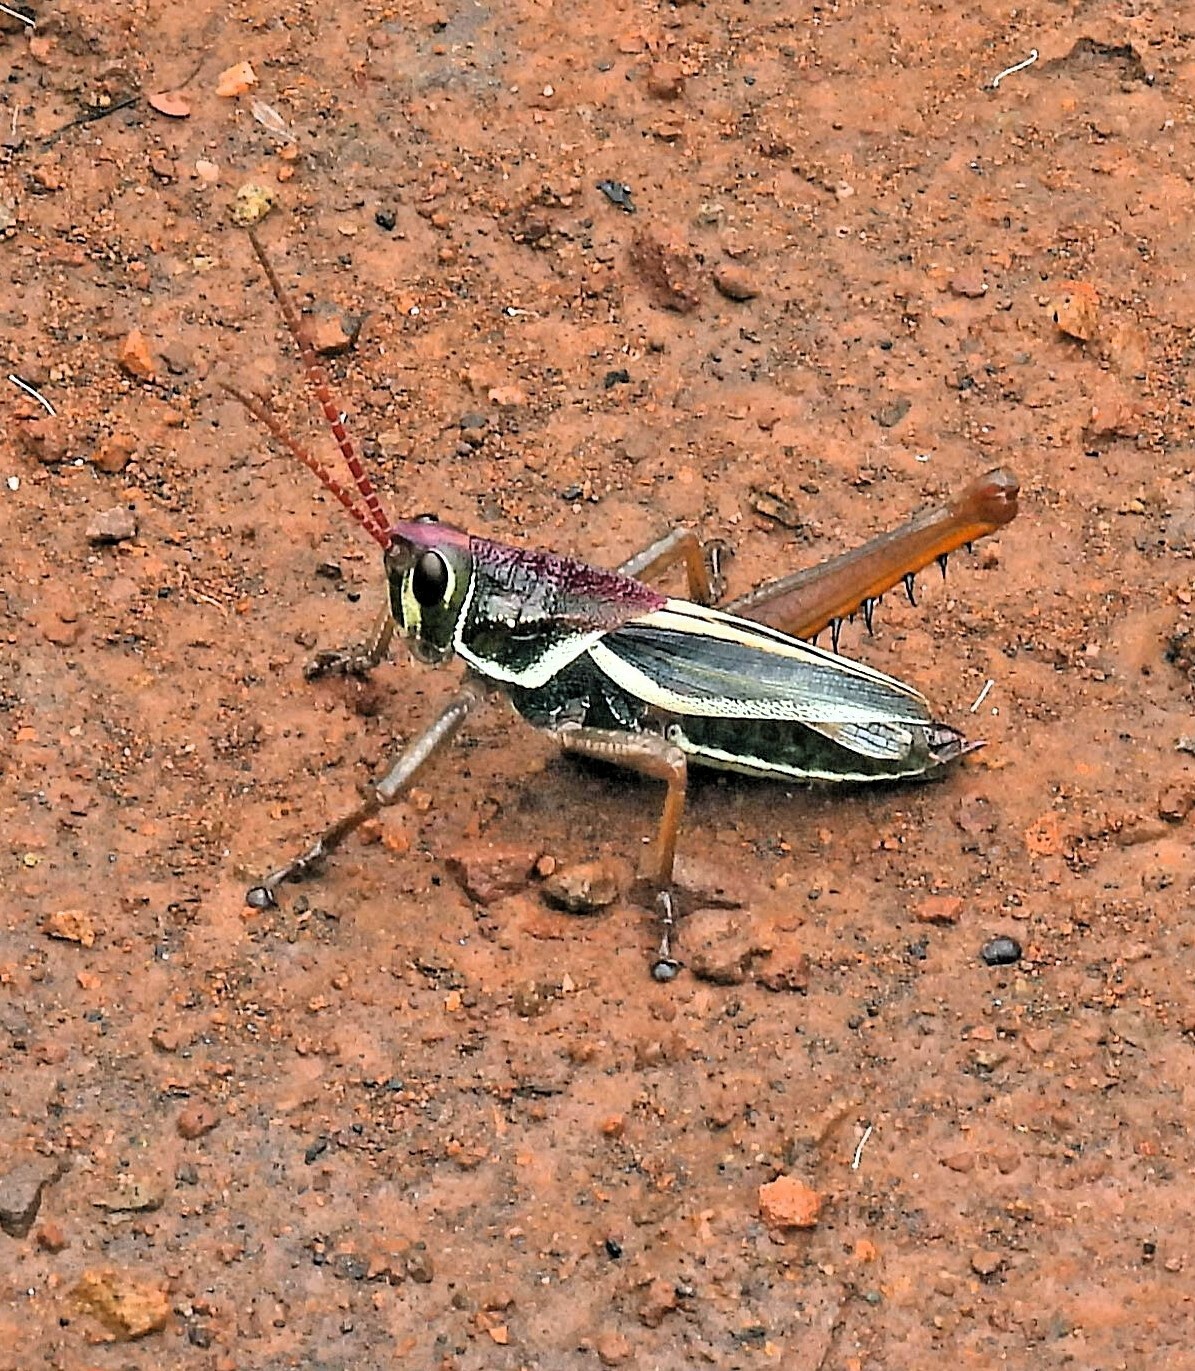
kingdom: Animalia
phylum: Arthropoda
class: Insecta
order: Orthoptera
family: Romaleidae
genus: Staleochlora
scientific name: Staleochlora arcuata
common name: Paraná purple-backed grasshopper
